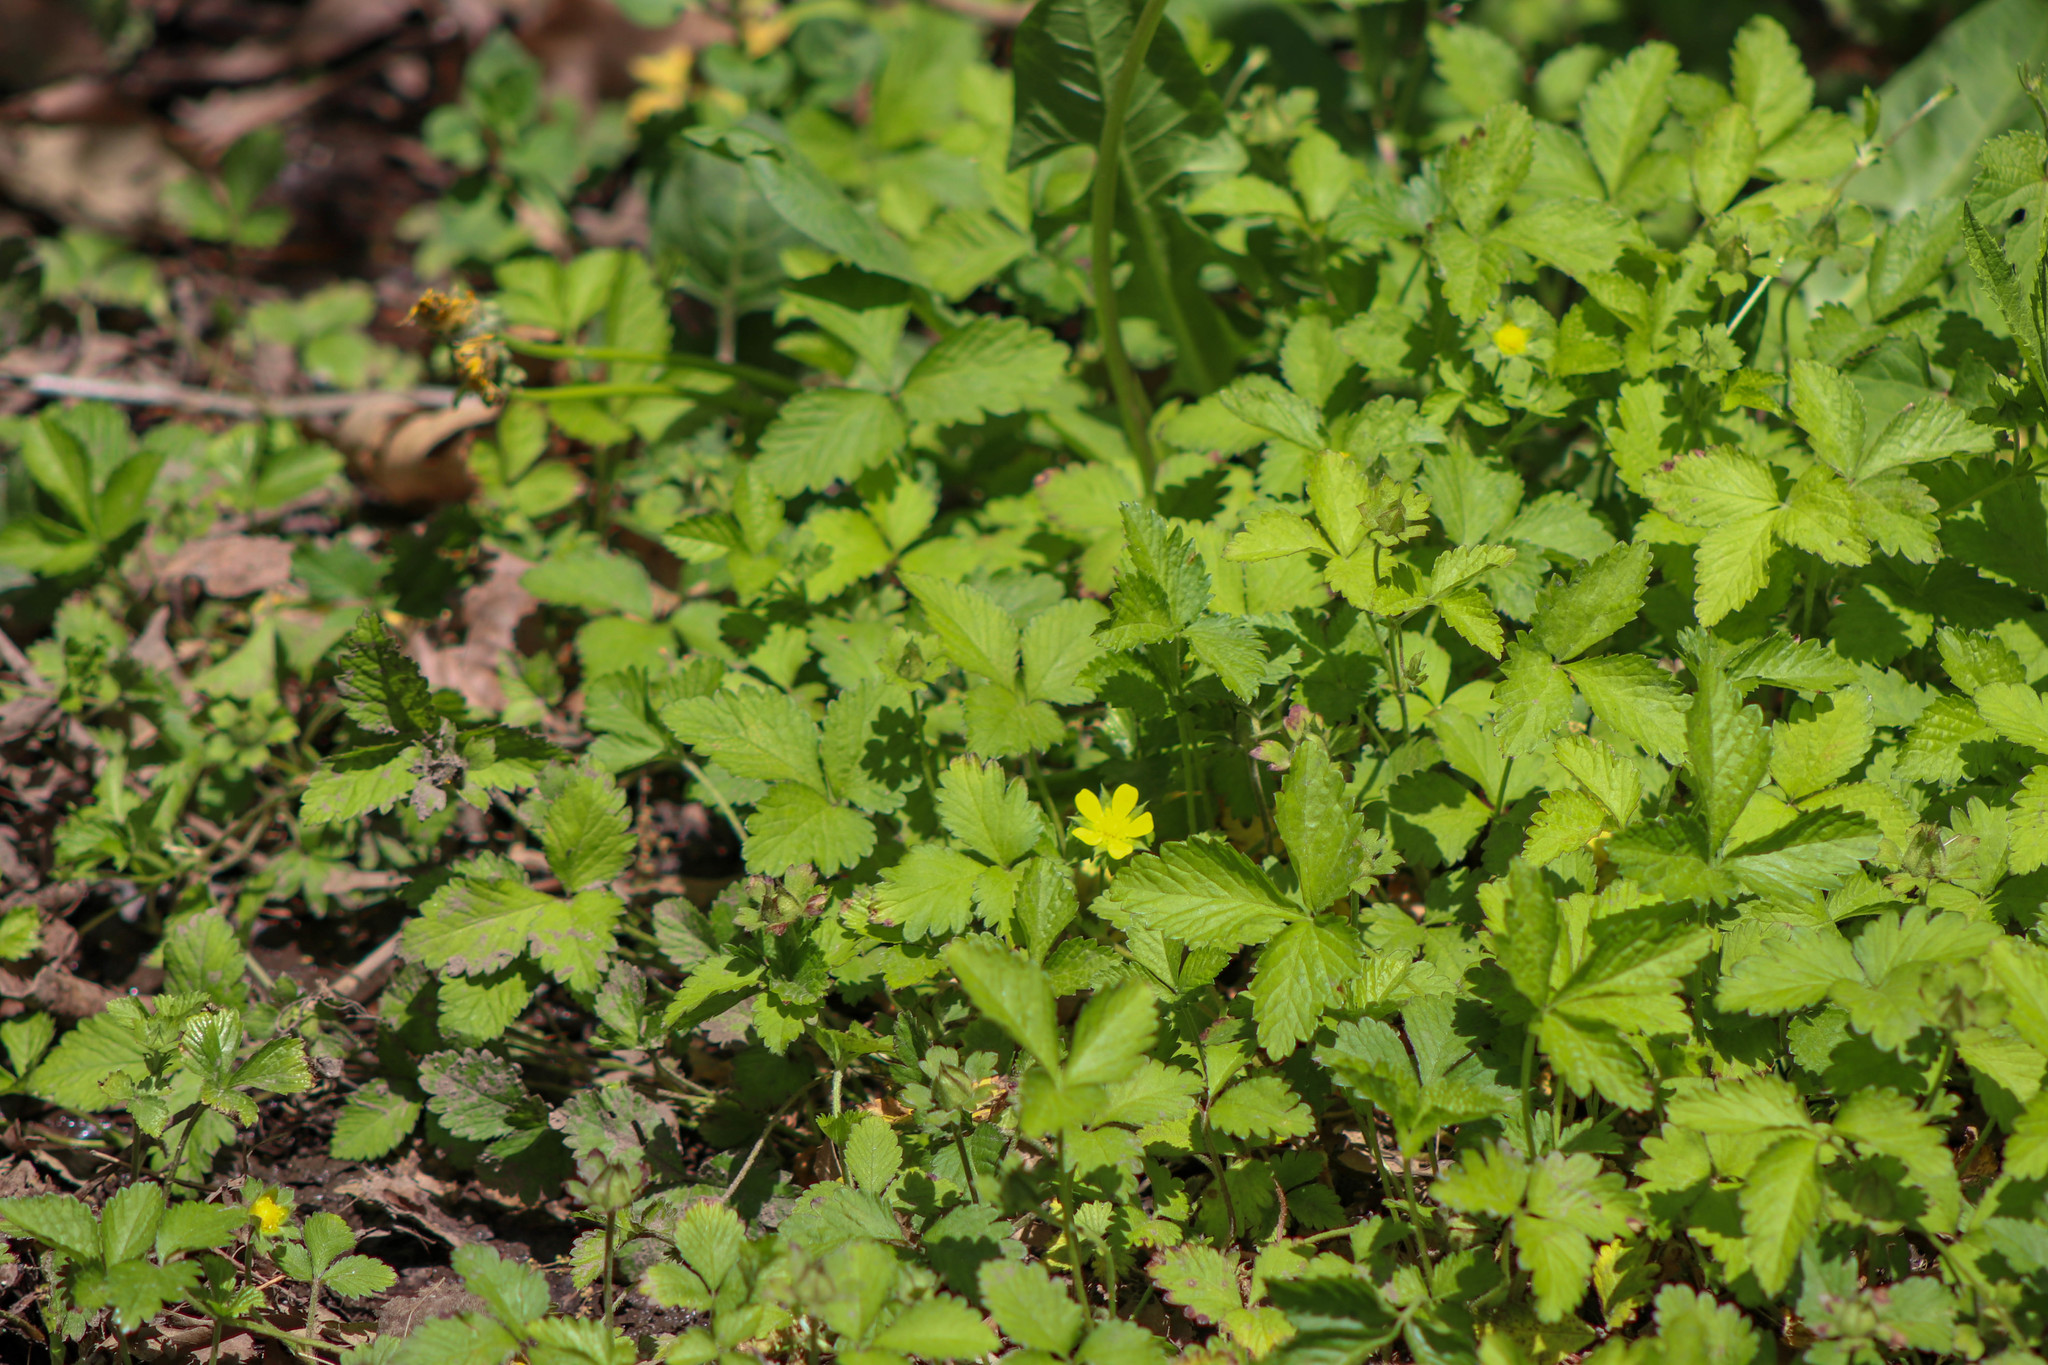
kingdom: Plantae
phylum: Tracheophyta
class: Magnoliopsida
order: Rosales
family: Rosaceae
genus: Potentilla
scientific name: Potentilla indica
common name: Yellow-flowered strawberry
